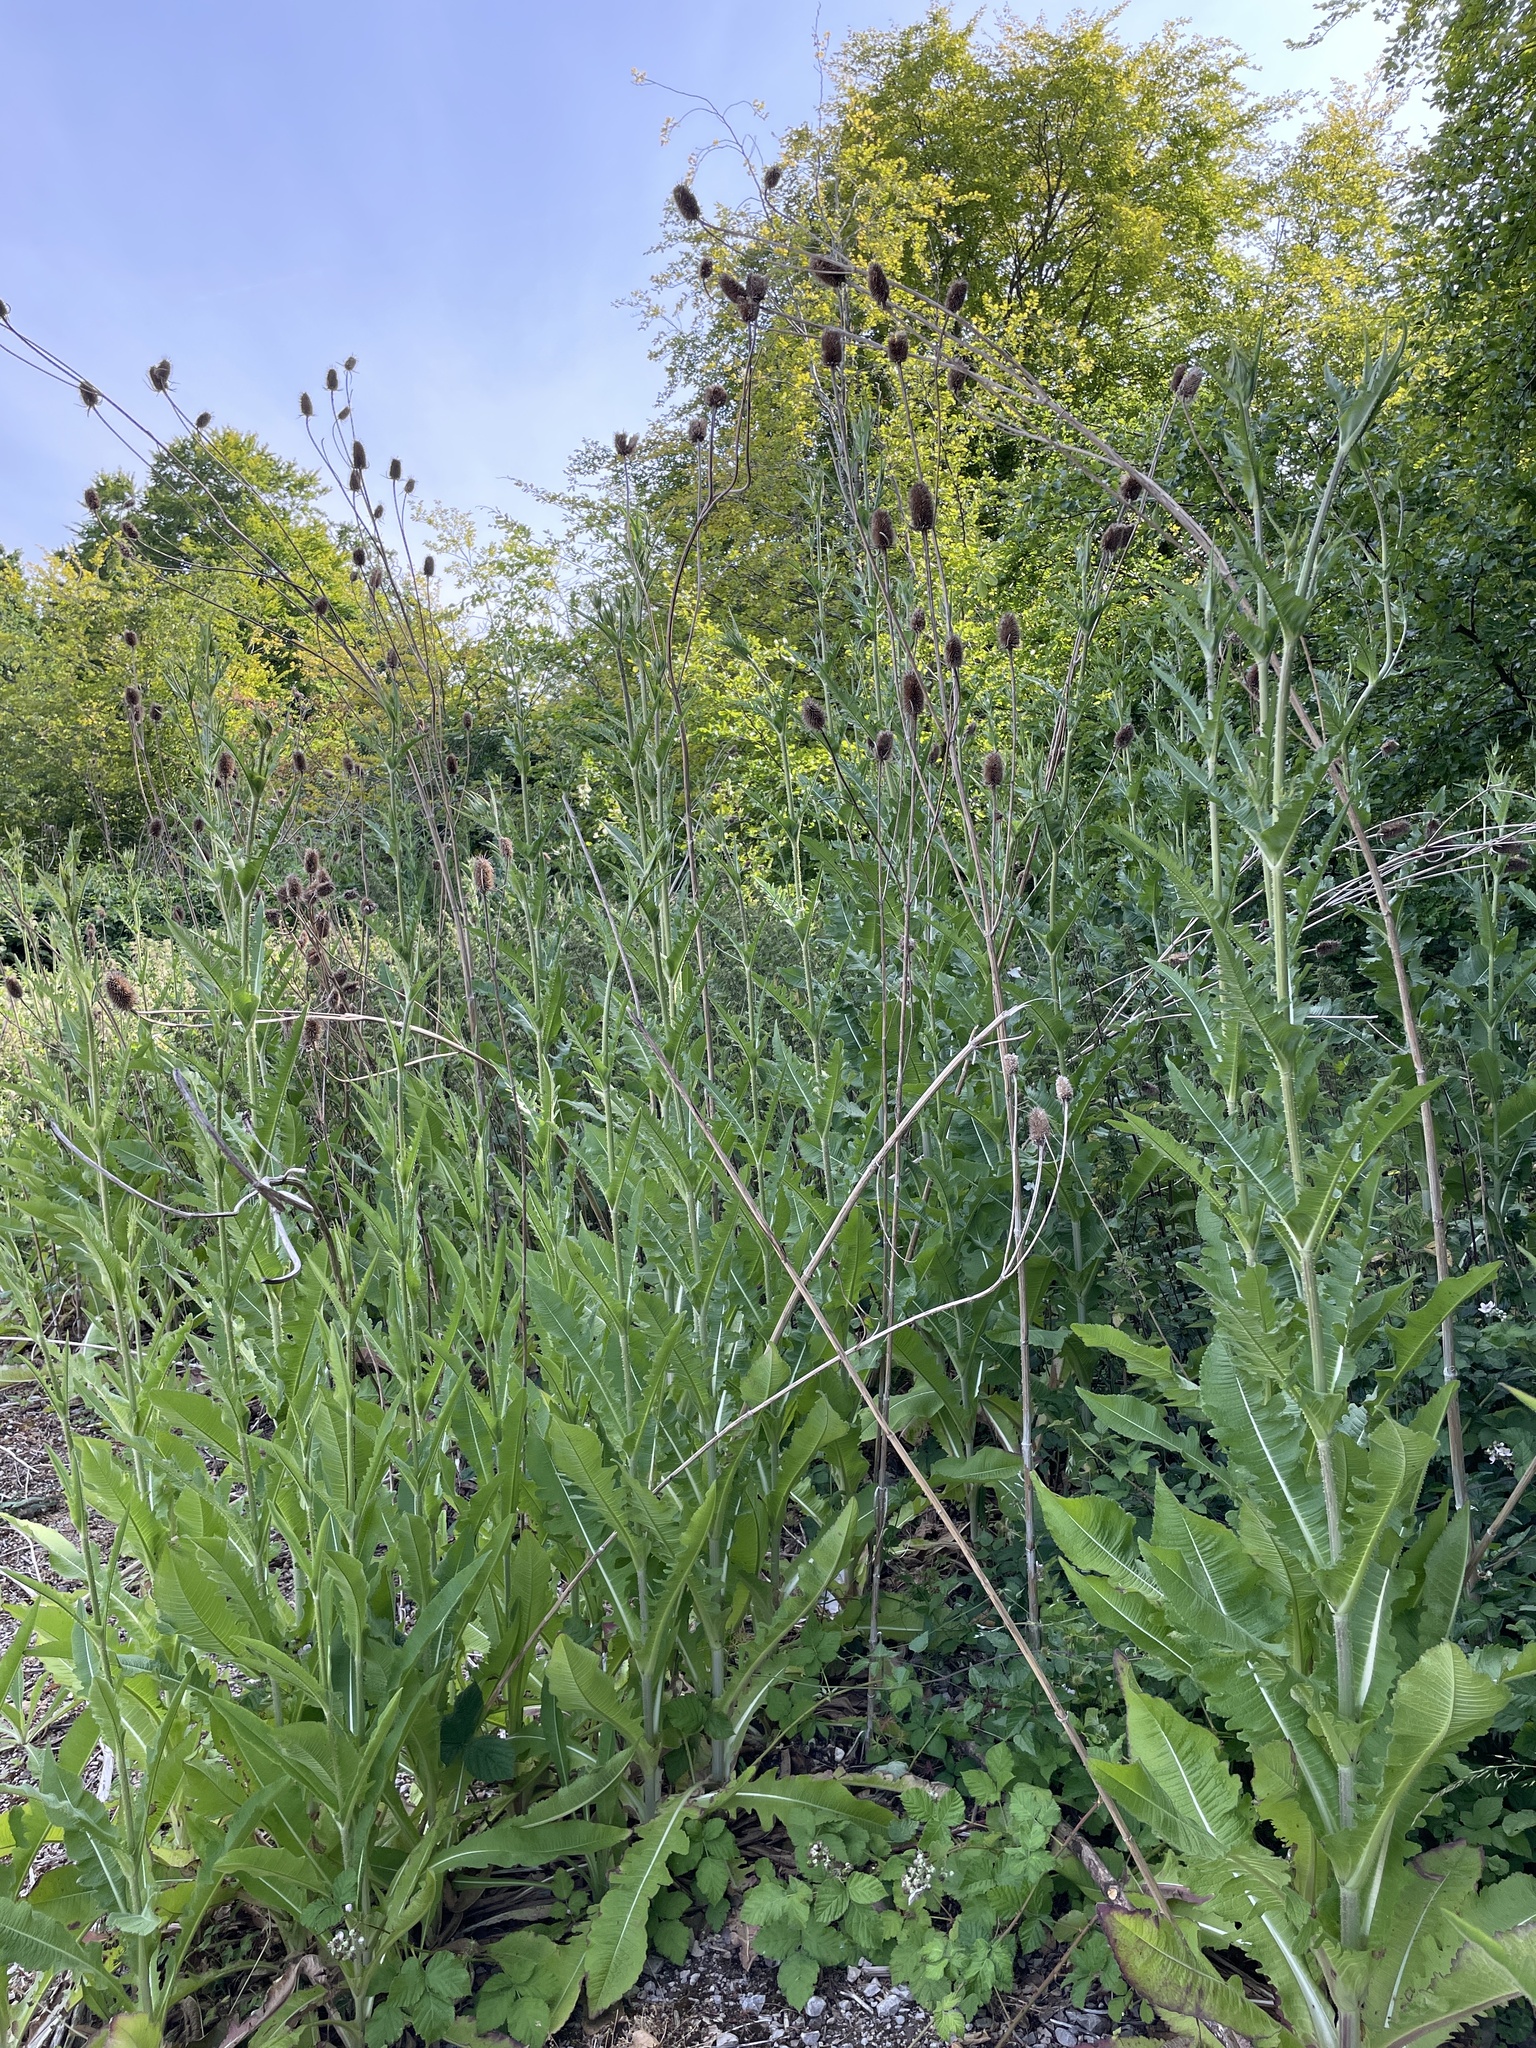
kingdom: Plantae
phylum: Tracheophyta
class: Magnoliopsida
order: Dipsacales
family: Caprifoliaceae
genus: Dipsacus
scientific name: Dipsacus laciniatus
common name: Cut-leaved teasel
